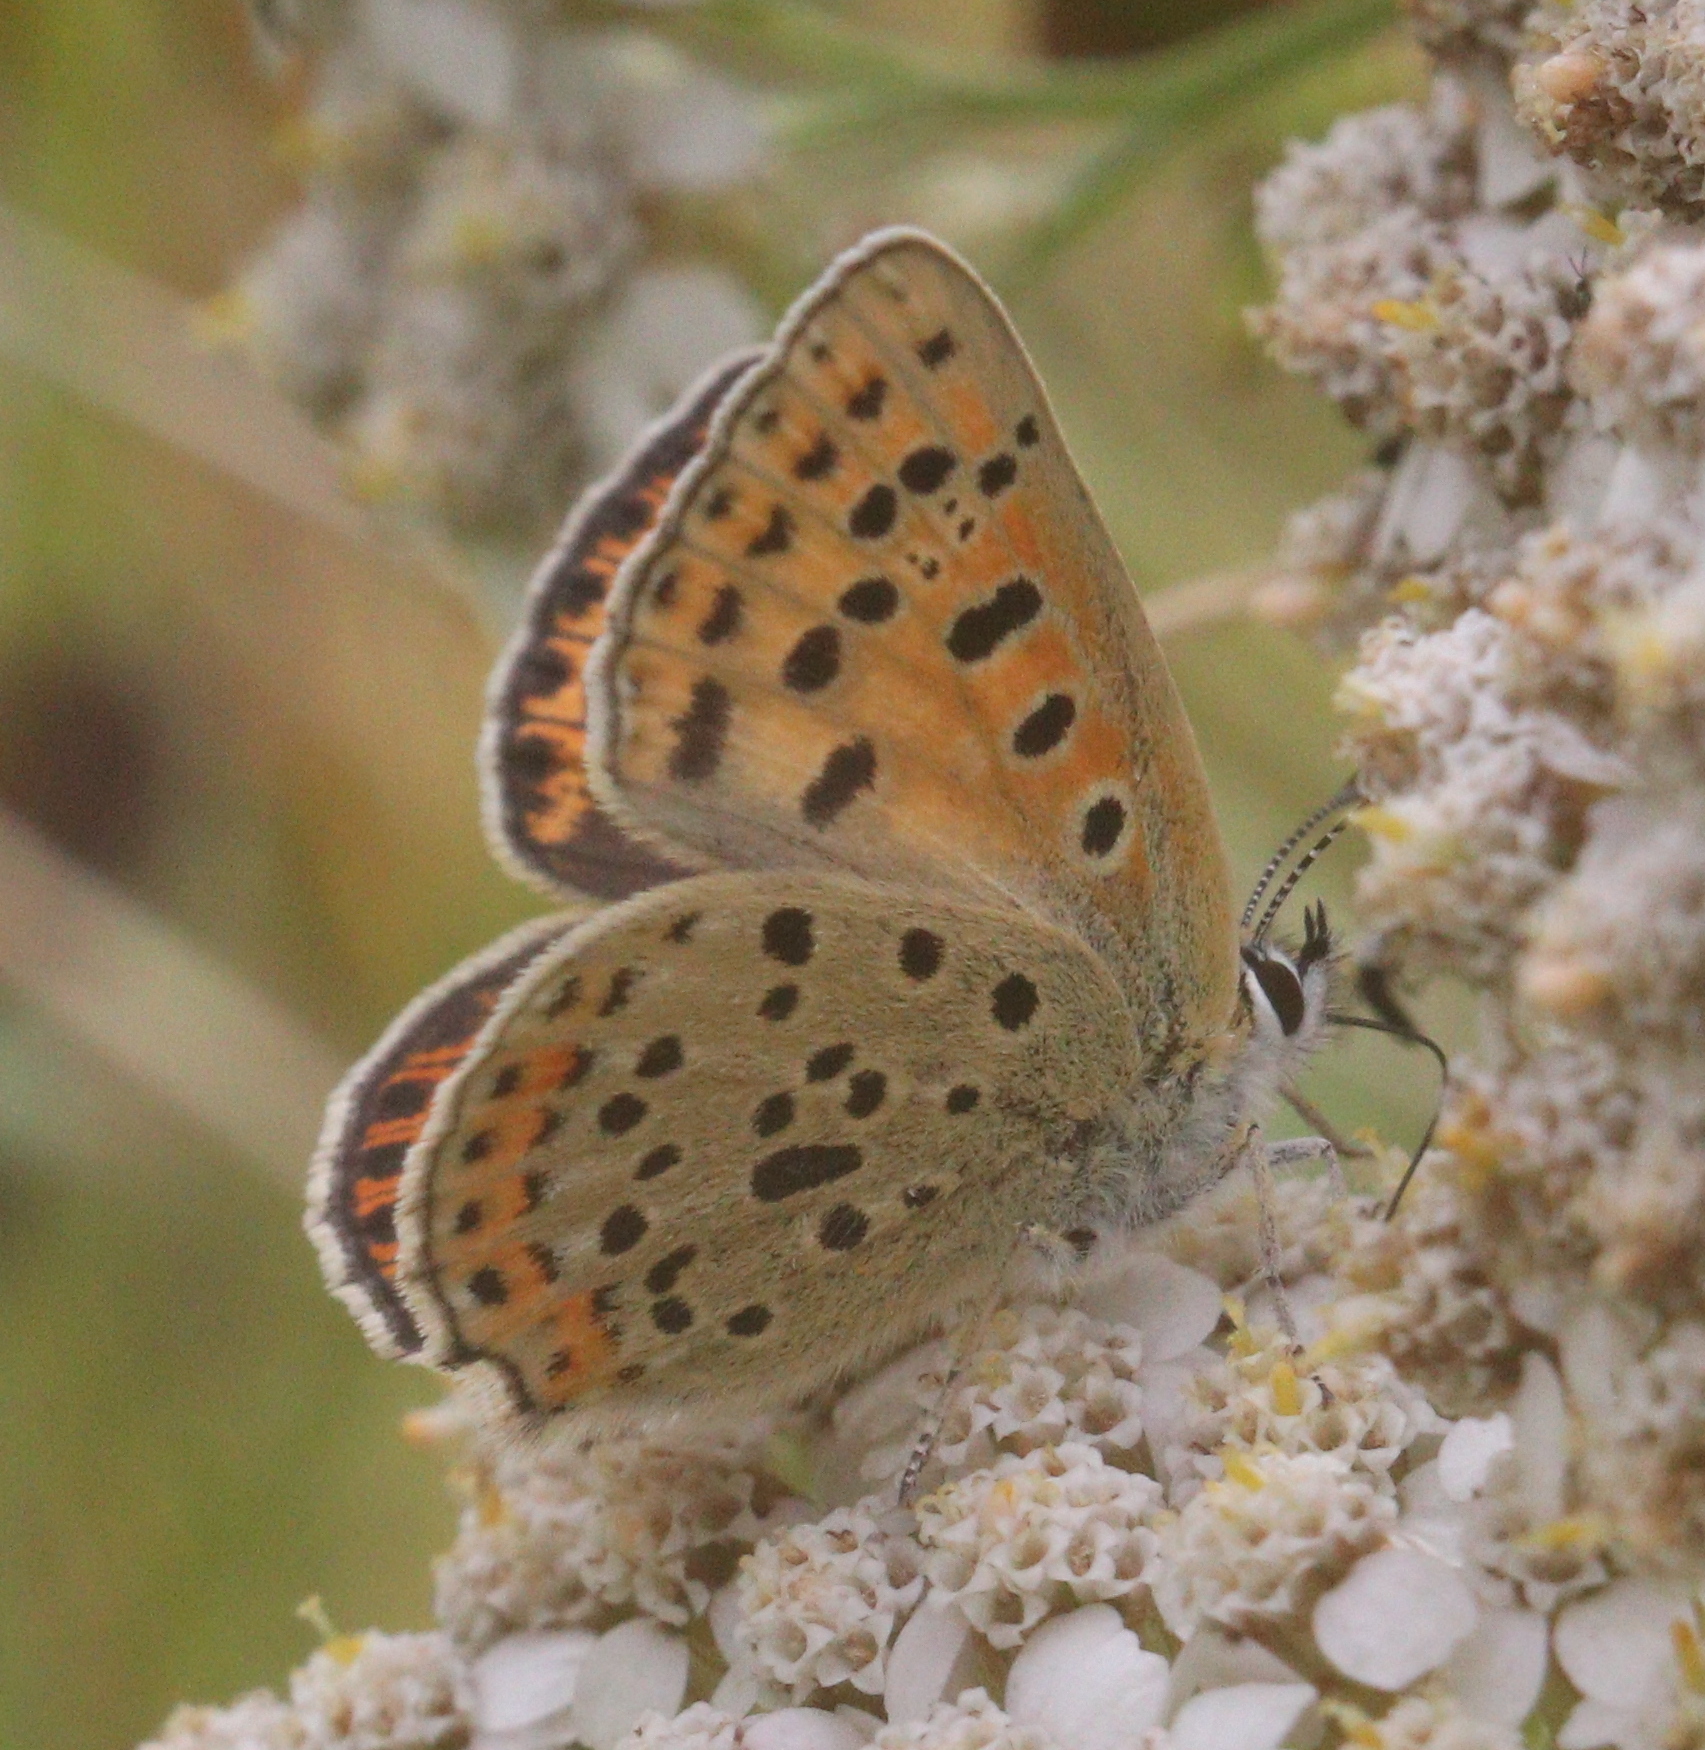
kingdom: Animalia
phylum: Arthropoda
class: Insecta
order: Lepidoptera
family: Lycaenidae
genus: Loweia
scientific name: Loweia tityrus
